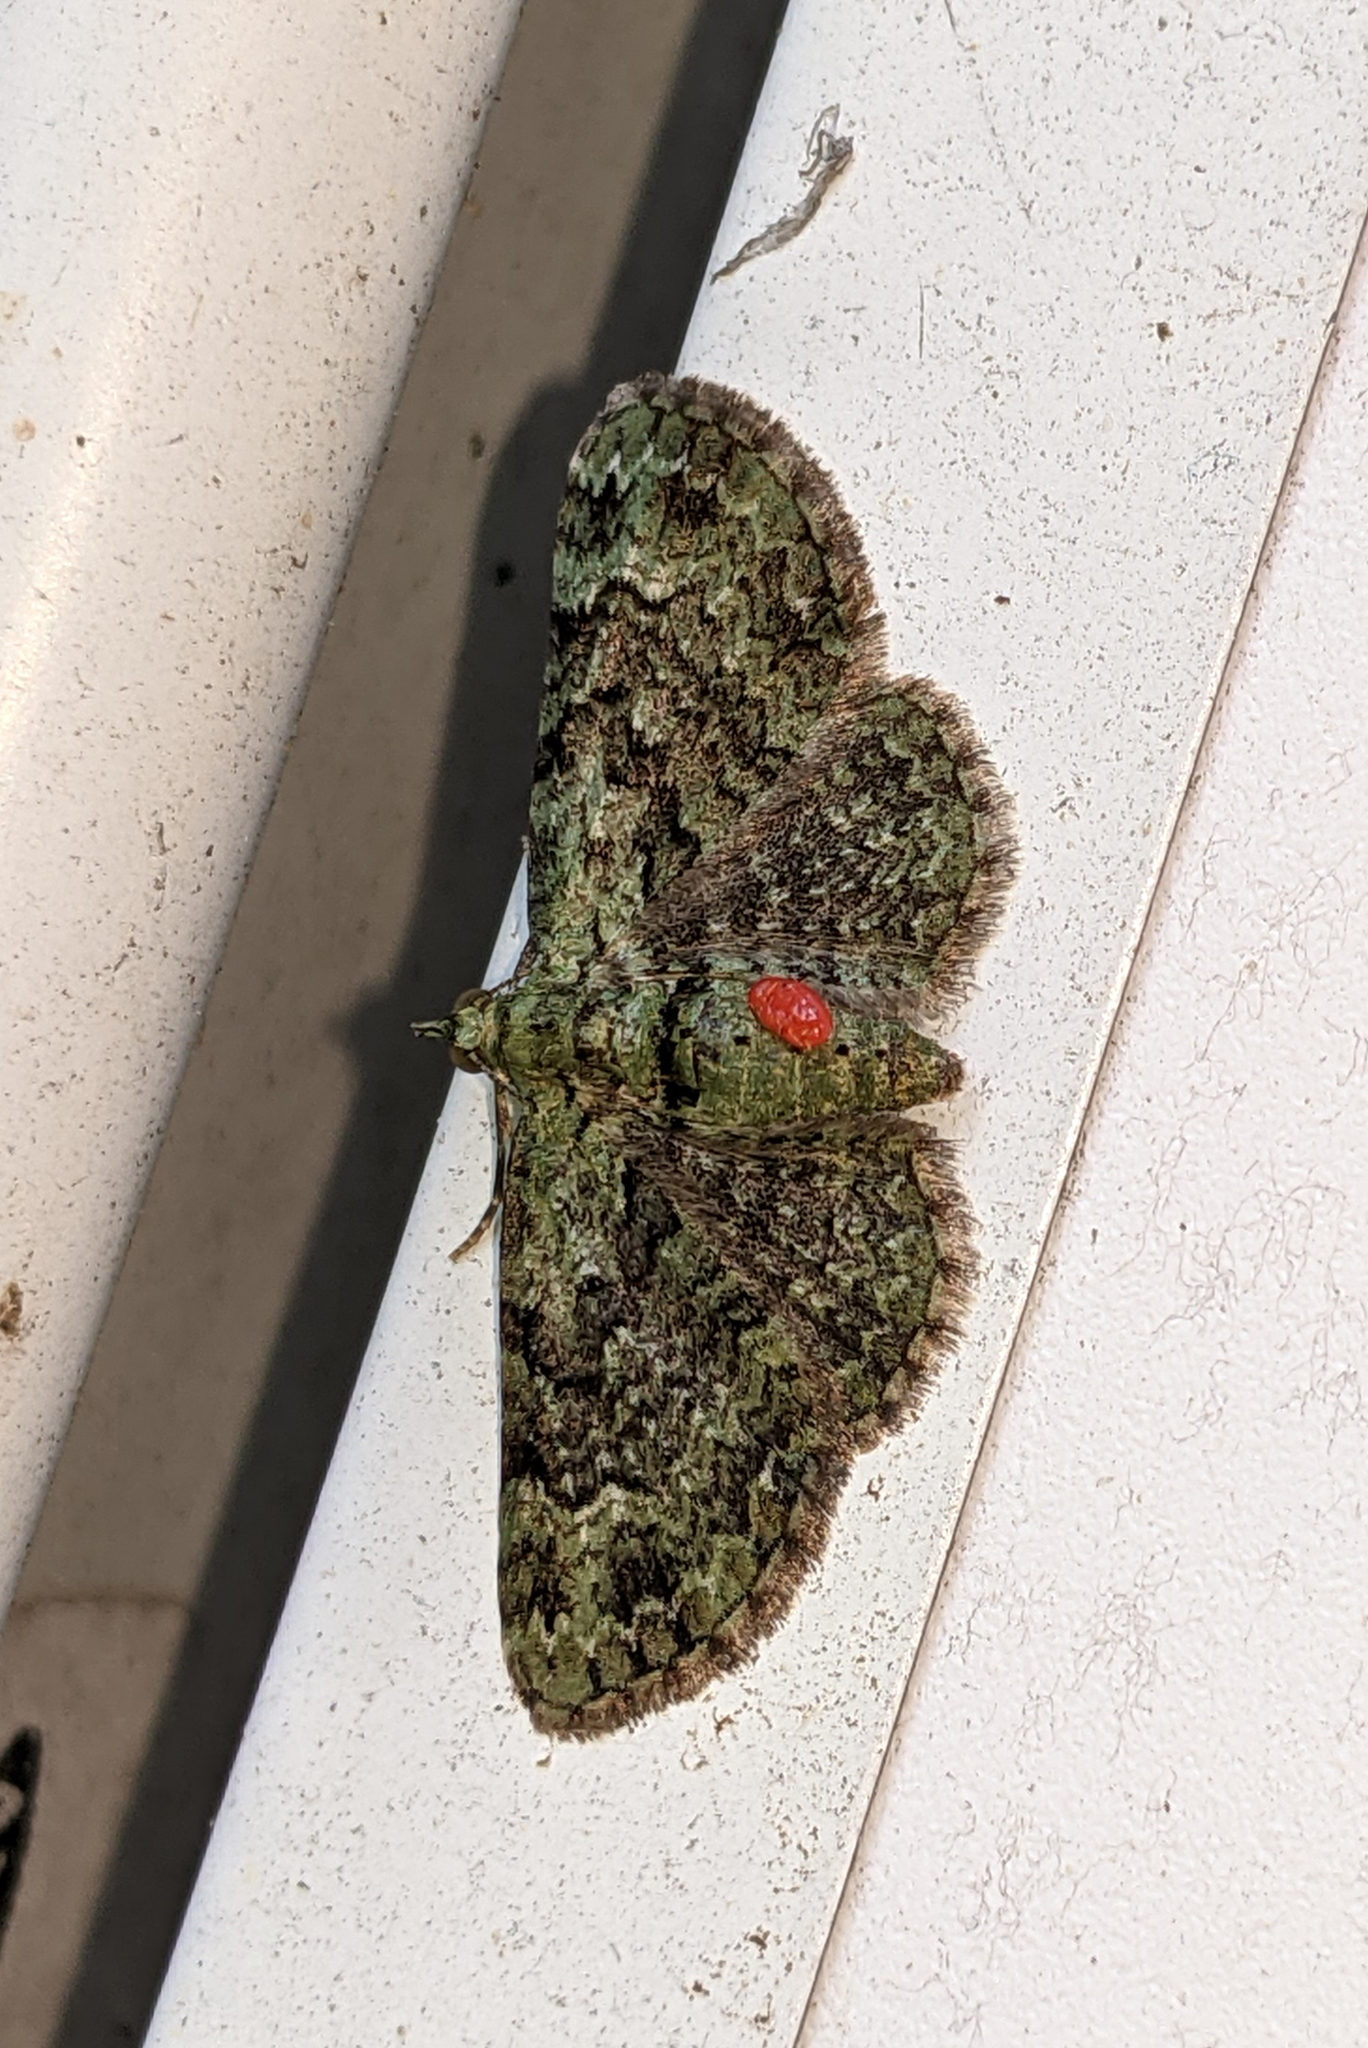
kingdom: Animalia
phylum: Arthropoda
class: Insecta
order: Lepidoptera
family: Geometridae
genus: Pasiphila
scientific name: Pasiphila rectangulata
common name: Green pug
